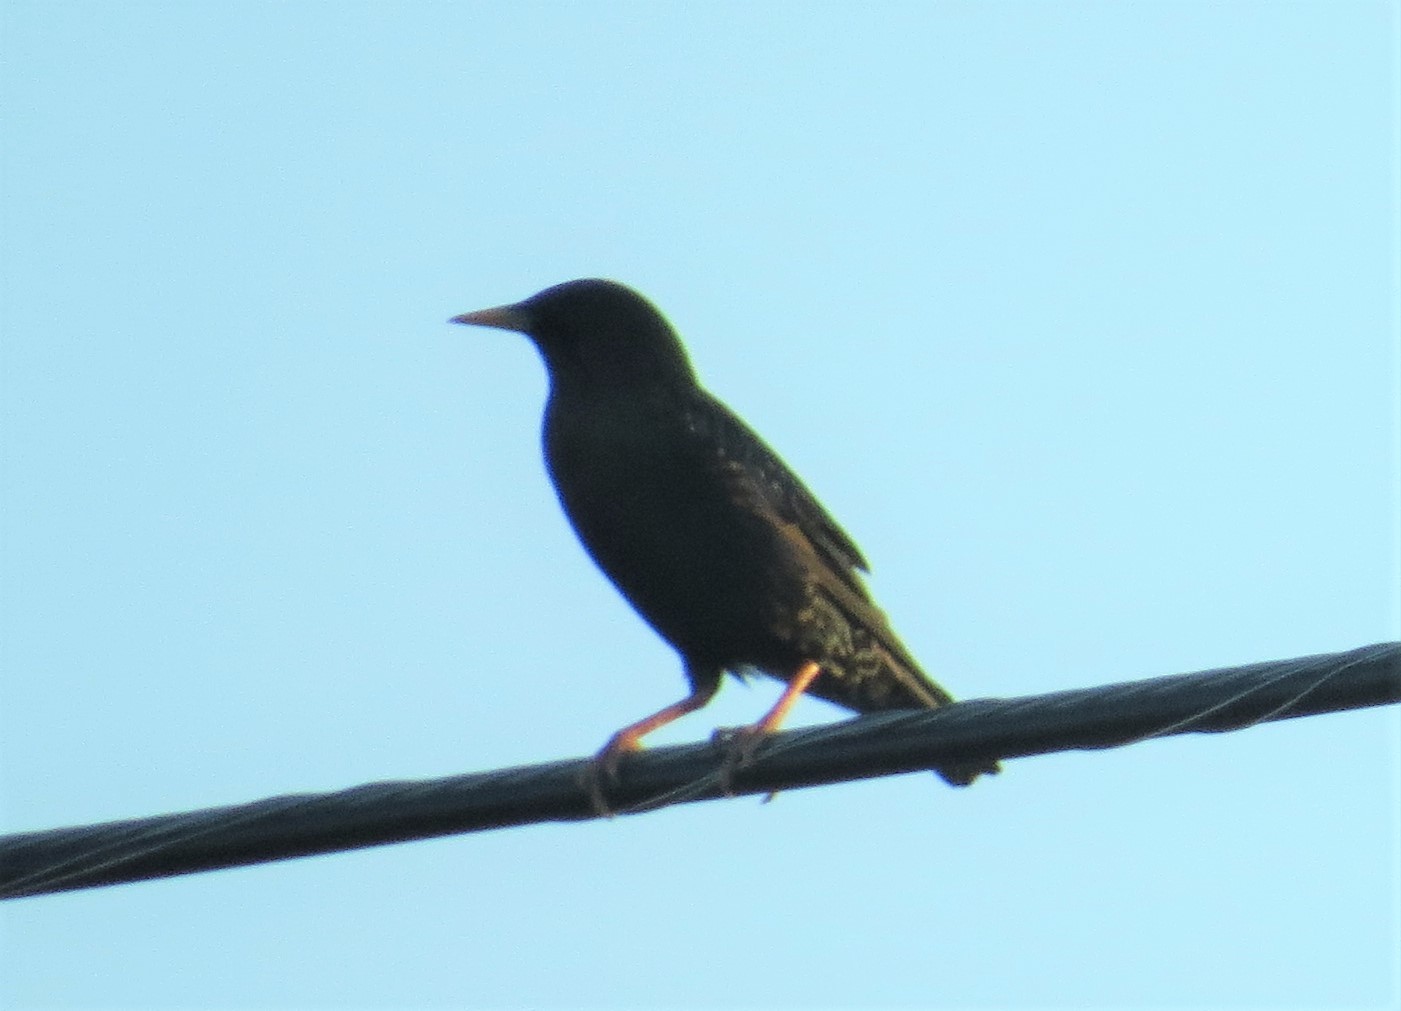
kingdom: Animalia
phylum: Chordata
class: Aves
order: Passeriformes
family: Sturnidae
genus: Sturnus
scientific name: Sturnus vulgaris
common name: Common starling
